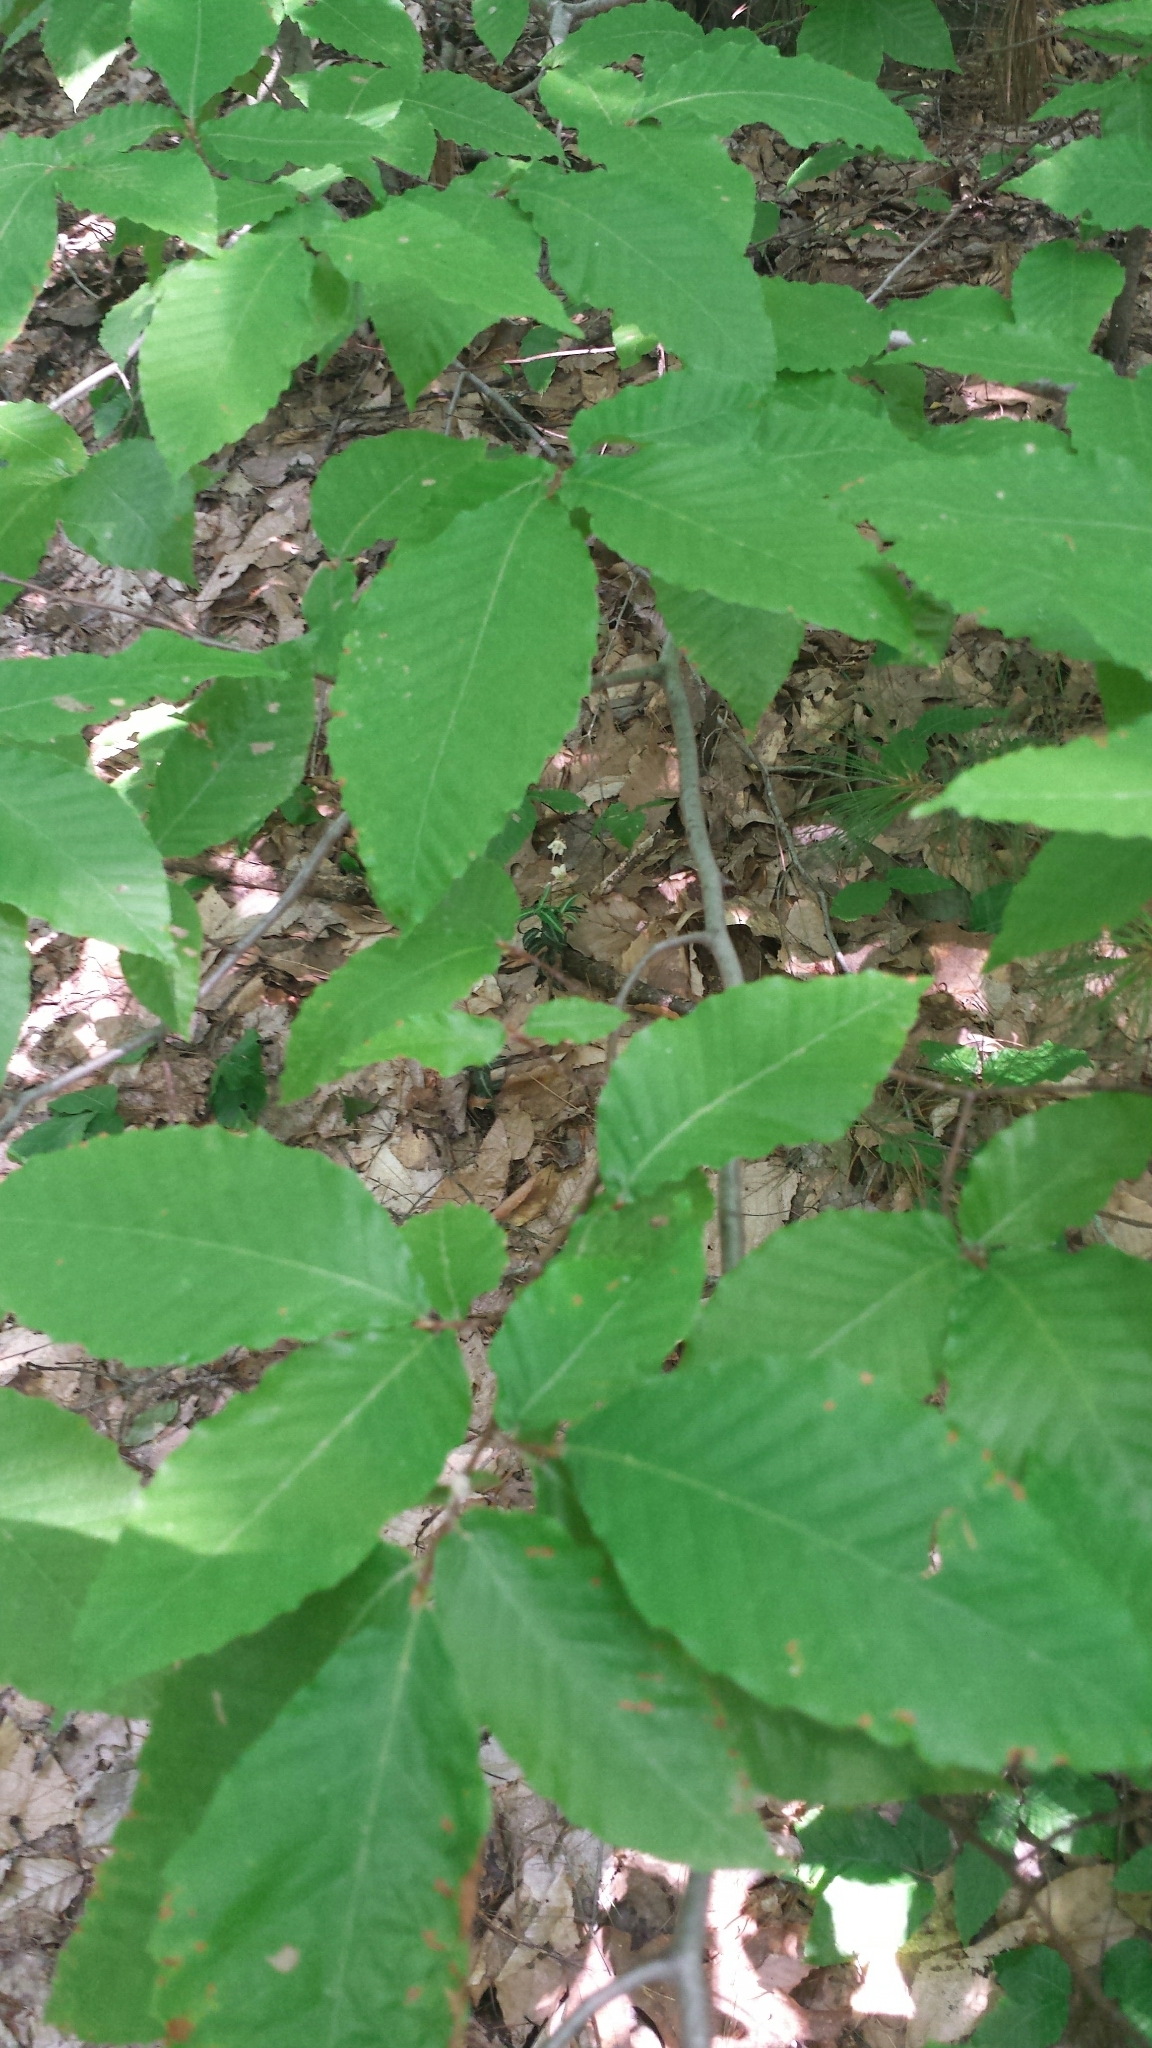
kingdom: Plantae
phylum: Tracheophyta
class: Magnoliopsida
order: Fagales
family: Fagaceae
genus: Fagus
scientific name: Fagus grandifolia
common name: American beech
